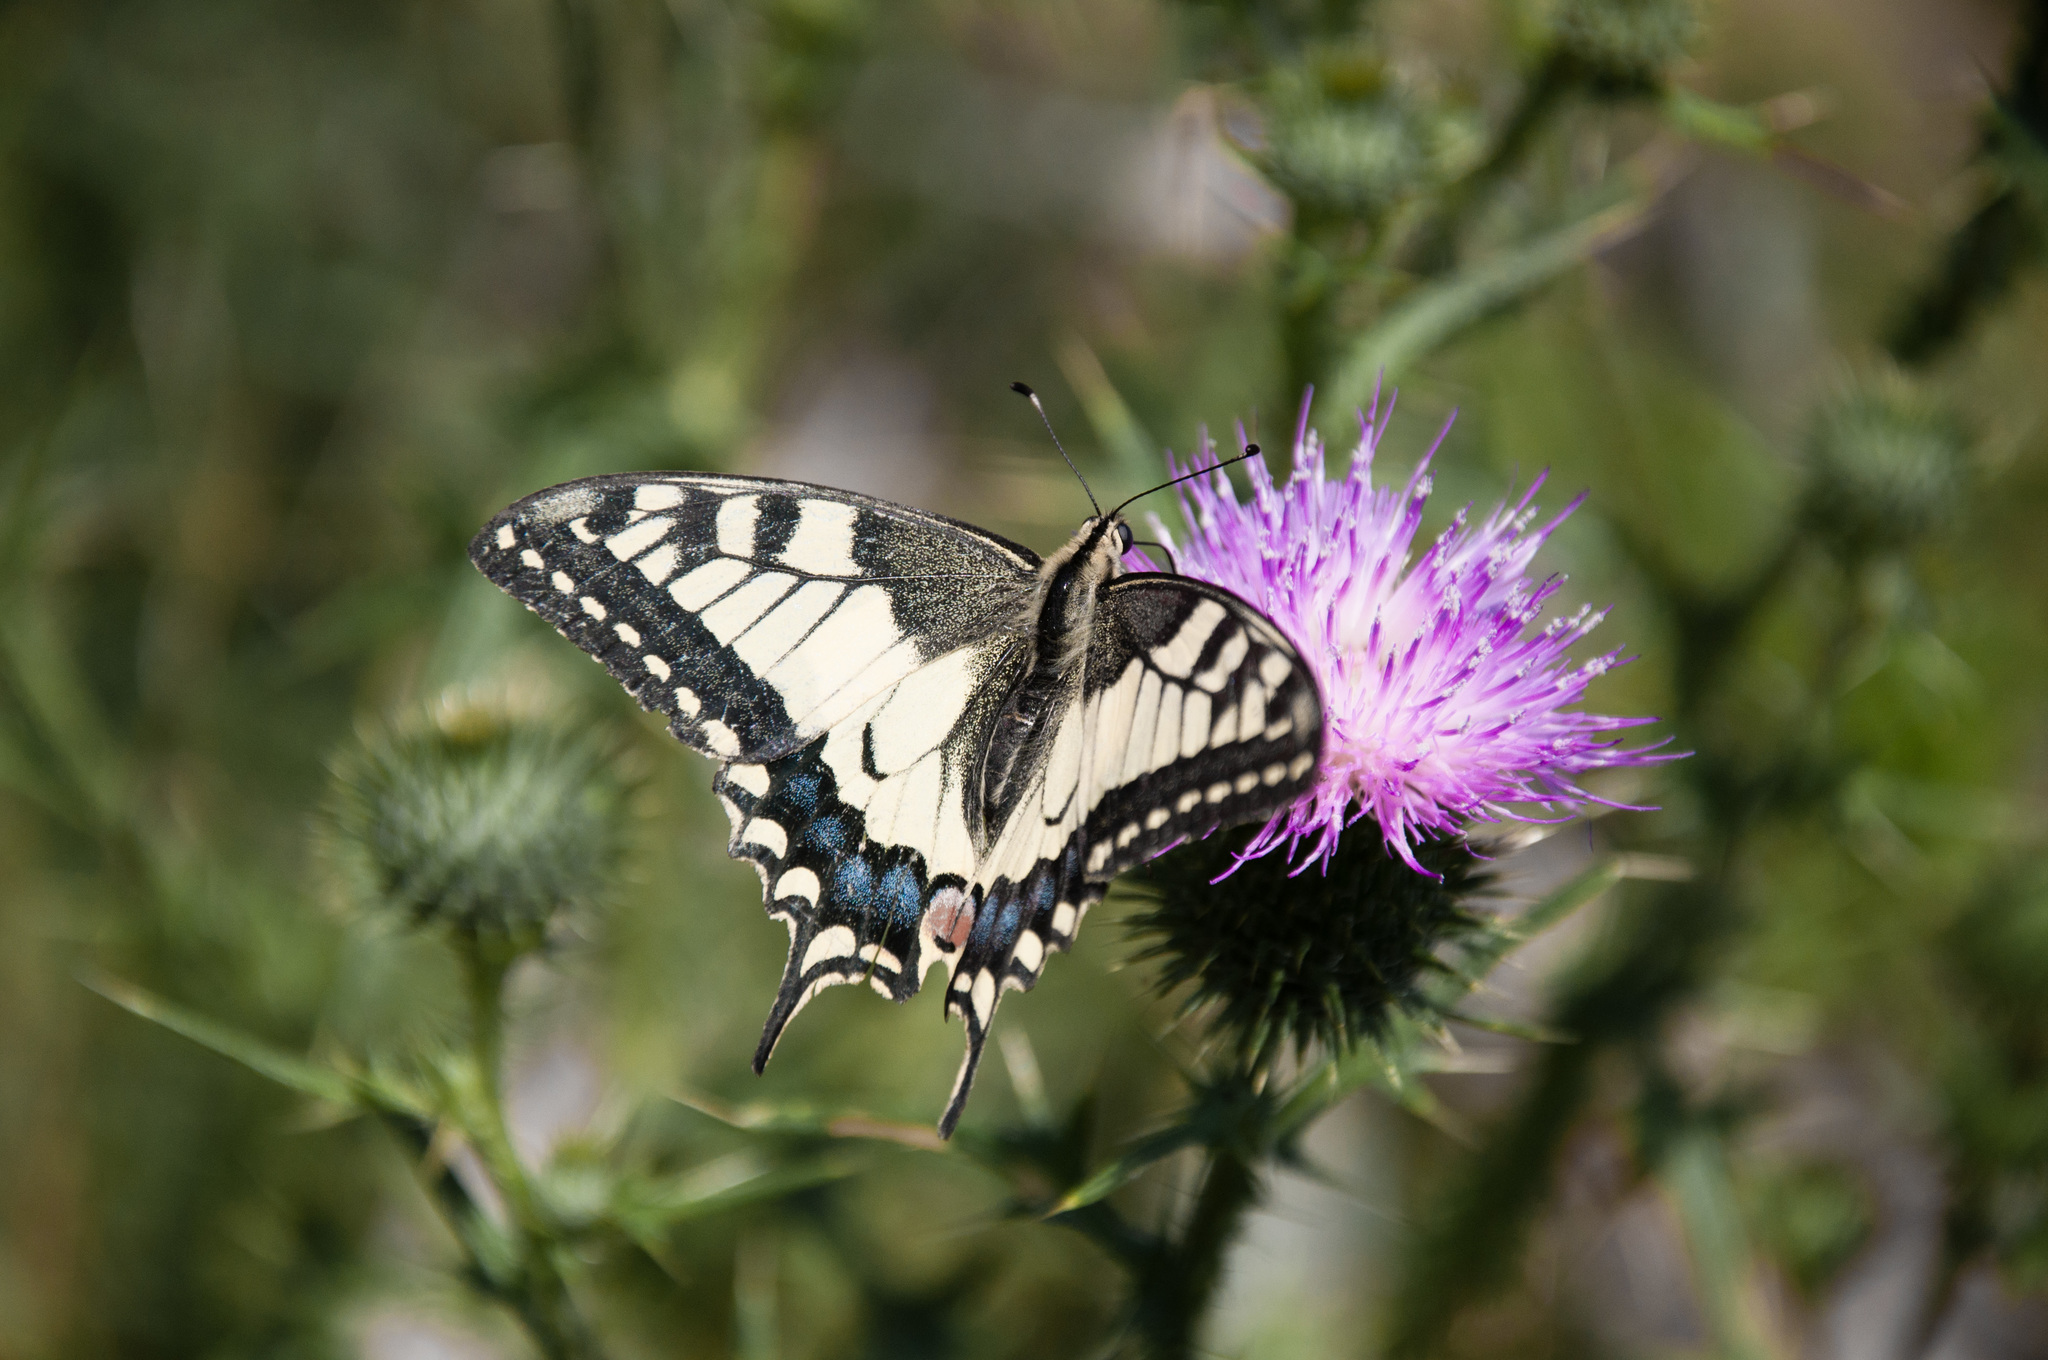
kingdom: Animalia
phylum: Arthropoda
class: Insecta
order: Lepidoptera
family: Papilionidae
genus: Papilio
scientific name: Papilio machaon
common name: Swallowtail
